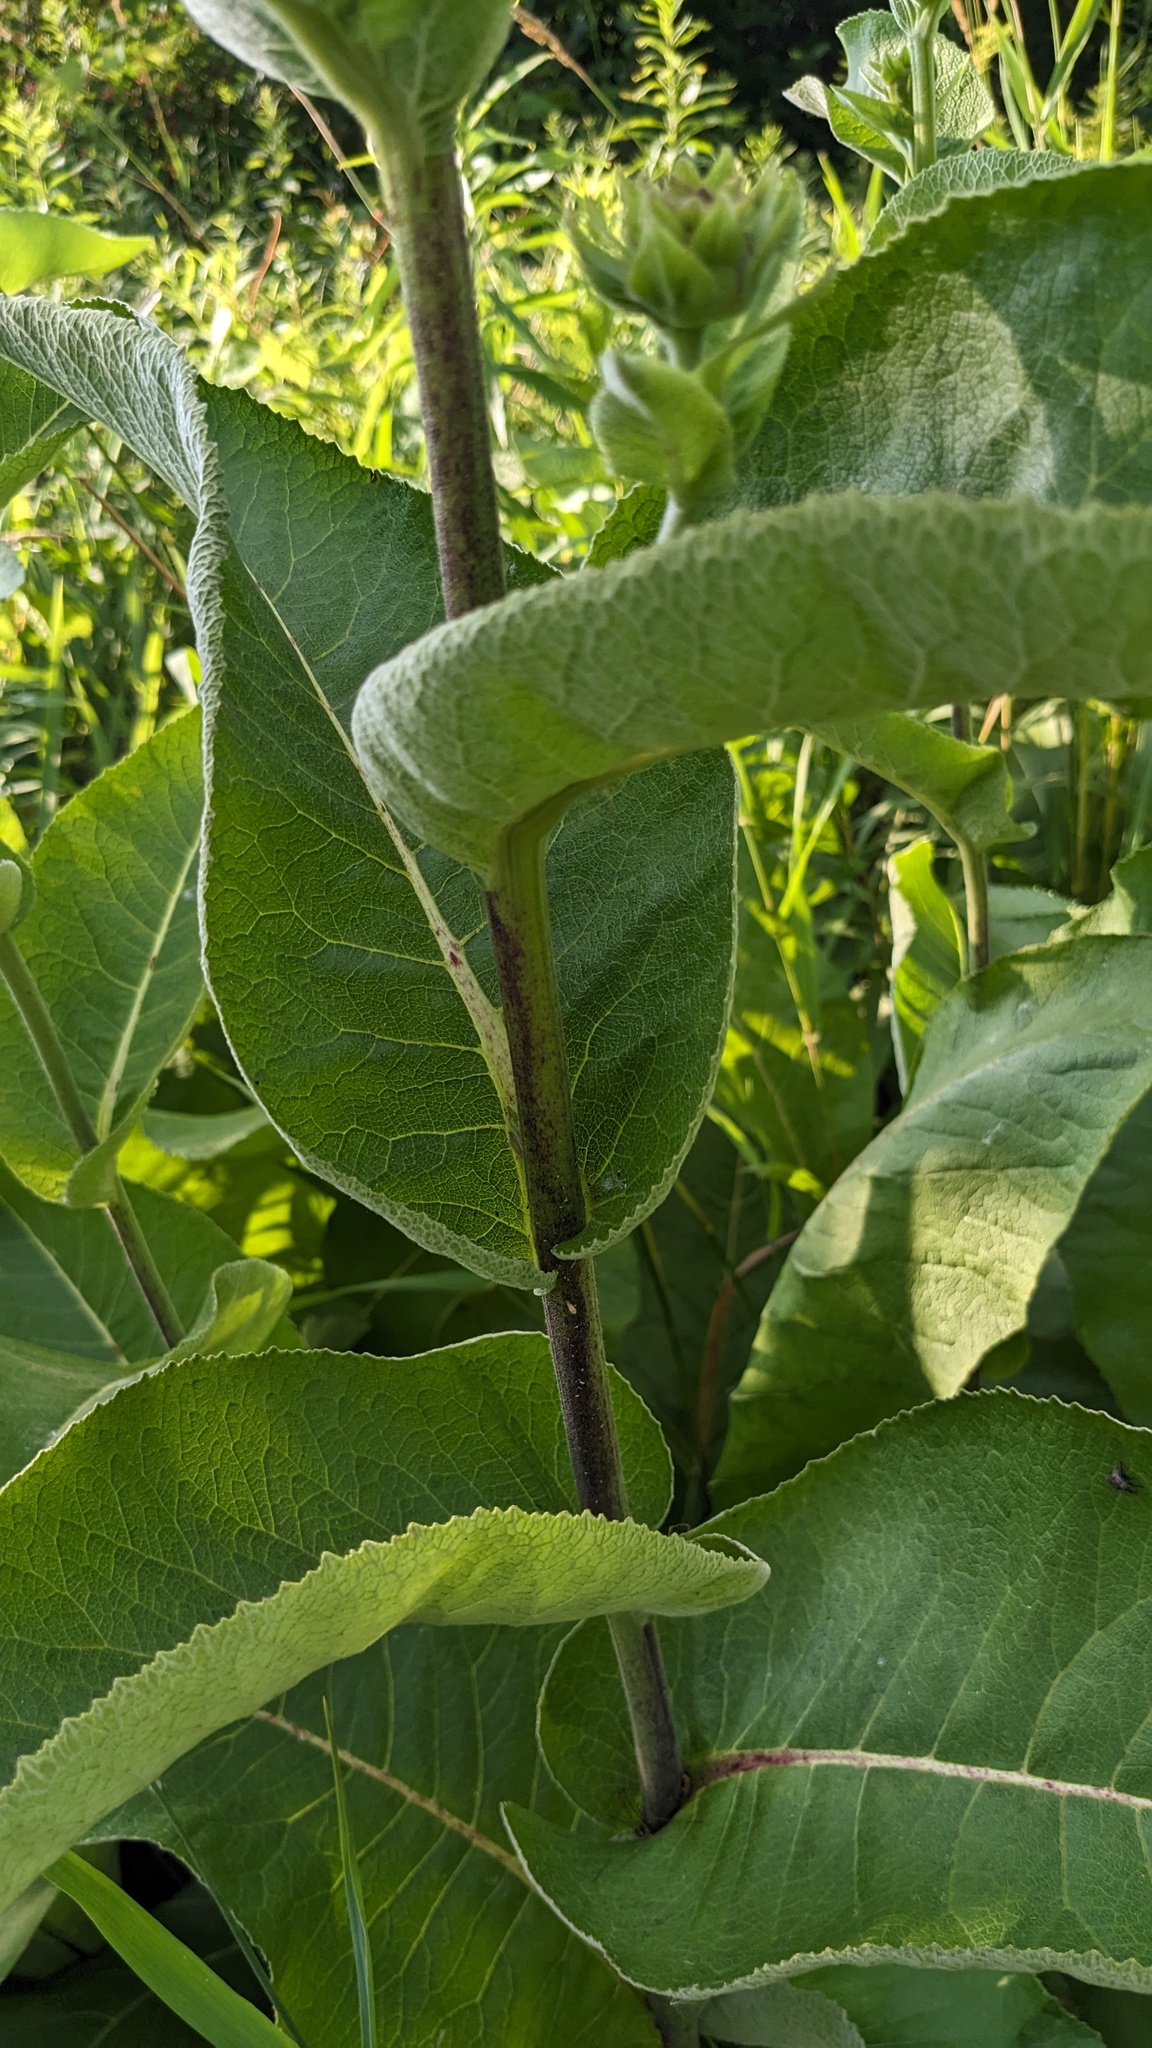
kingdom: Plantae
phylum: Tracheophyta
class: Magnoliopsida
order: Asterales
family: Asteraceae
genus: Inula
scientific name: Inula helenium
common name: Elecampane
